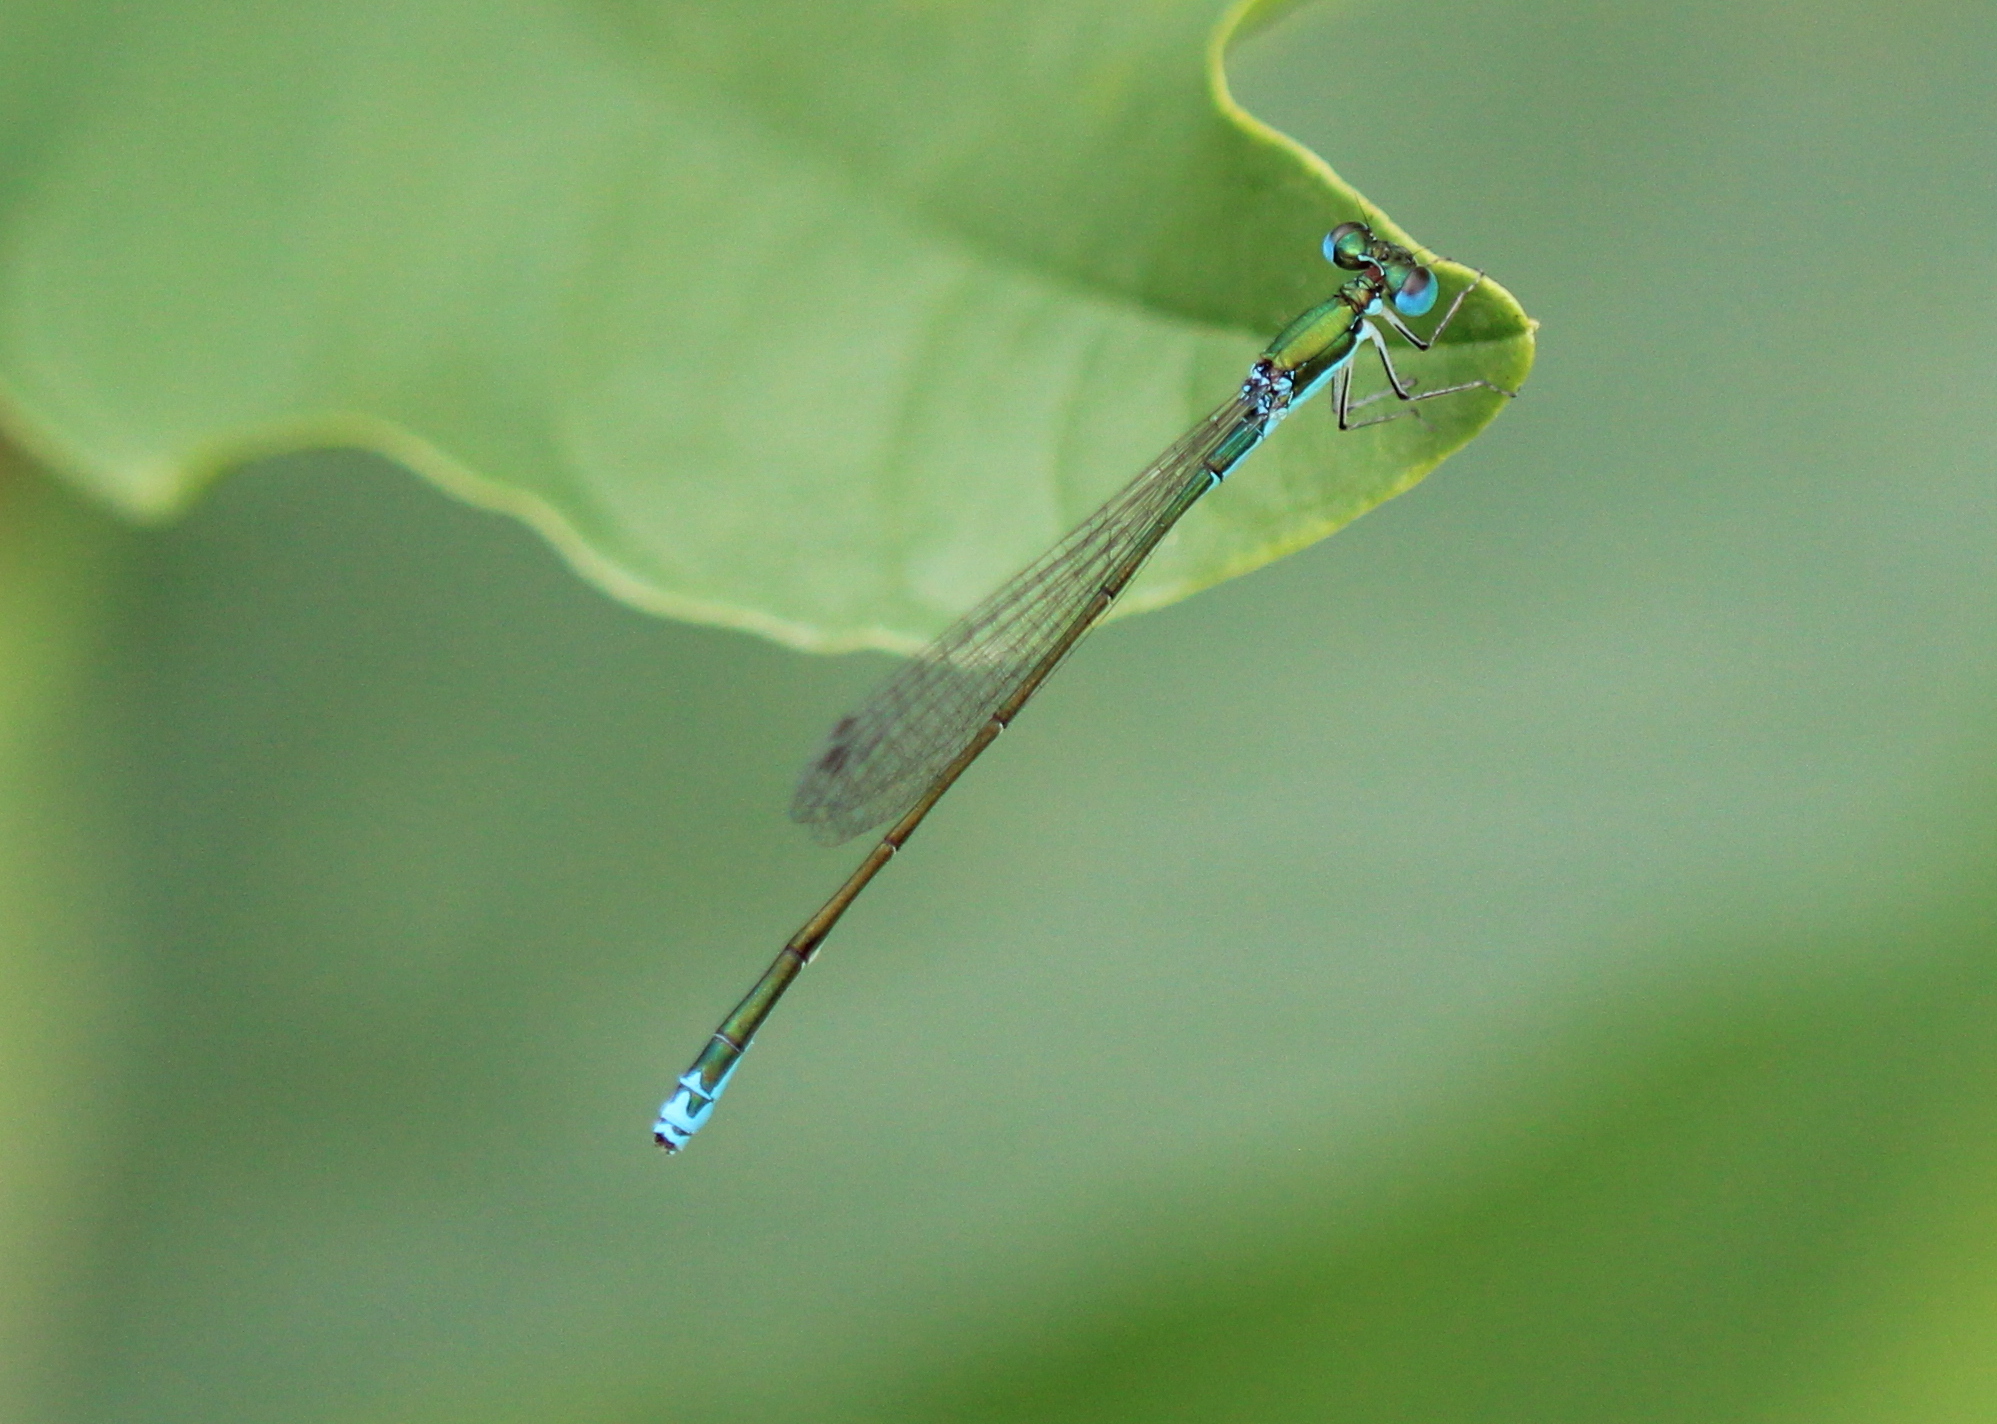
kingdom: Animalia
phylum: Arthropoda
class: Insecta
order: Odonata
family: Coenagrionidae
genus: Nehalennia
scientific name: Nehalennia irene
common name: Sedge sprite
